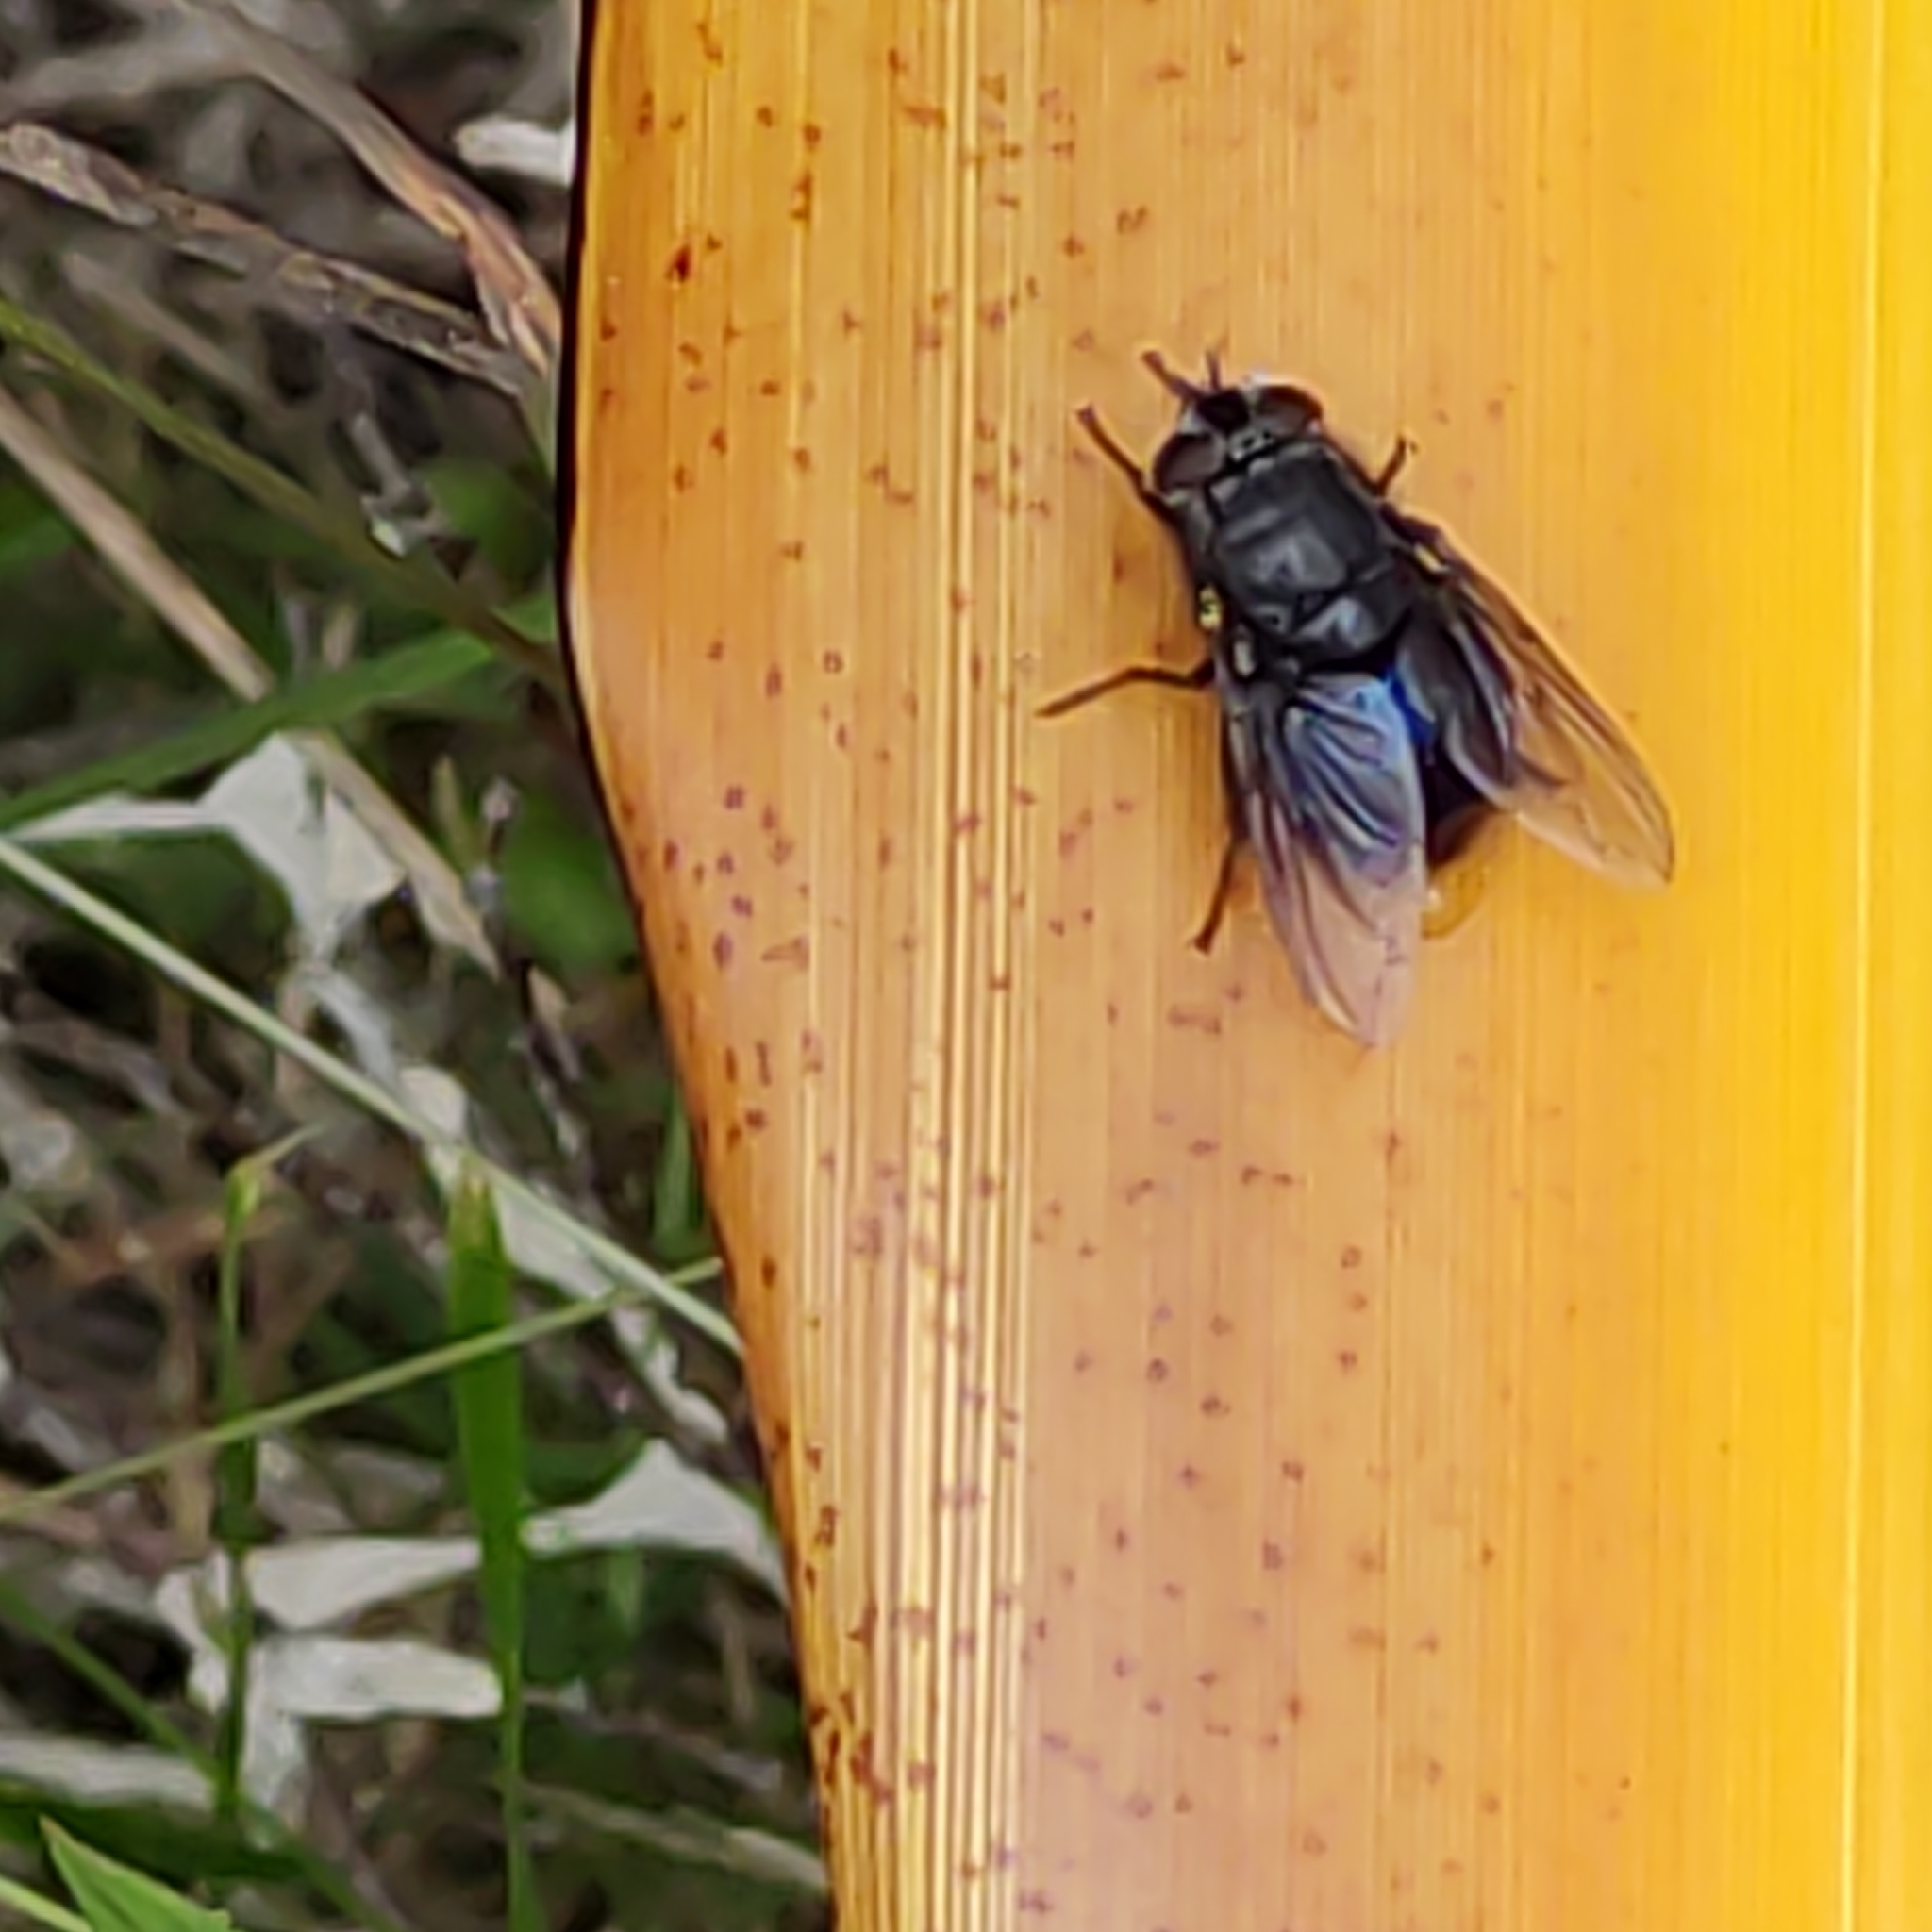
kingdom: Animalia
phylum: Arthropoda
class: Insecta
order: Diptera
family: Calliphoridae
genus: Calliphora
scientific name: Calliphora quadrimaculata
